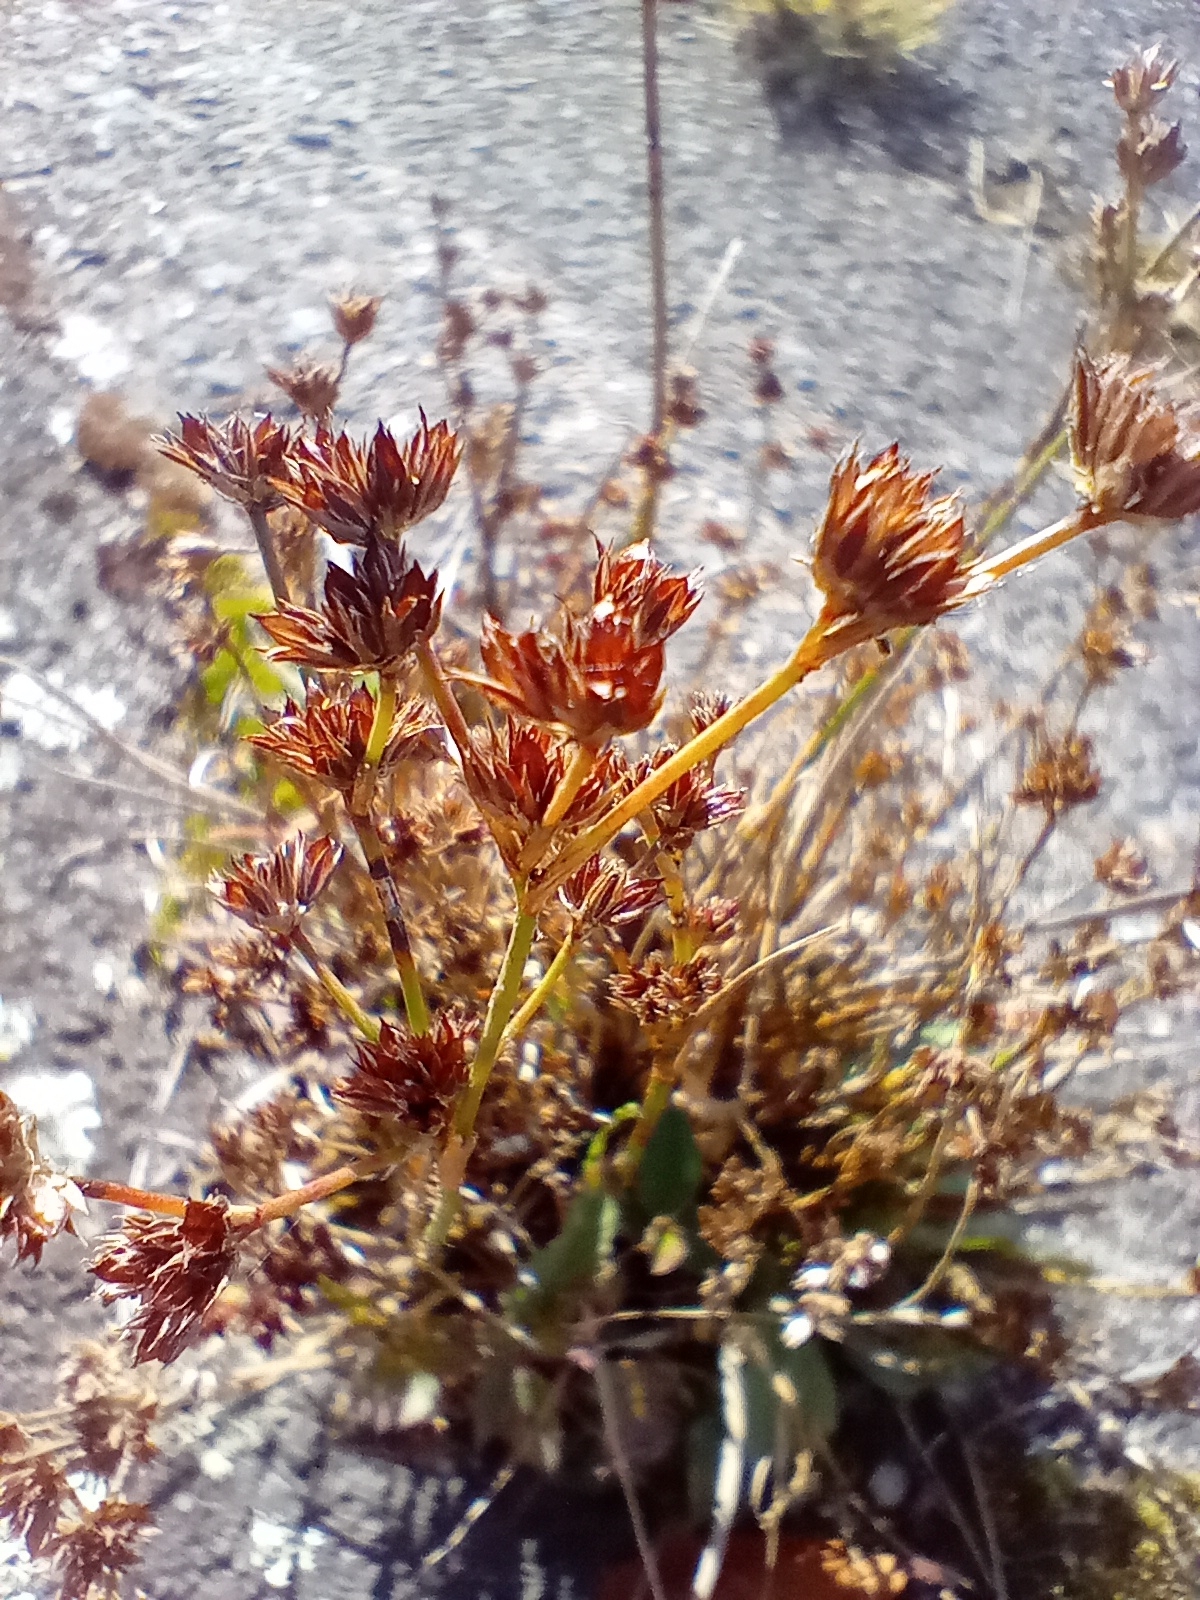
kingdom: Plantae
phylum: Tracheophyta
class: Liliopsida
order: Poales
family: Juncaceae
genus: Juncus
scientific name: Juncus articulatus
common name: Jointed rush
